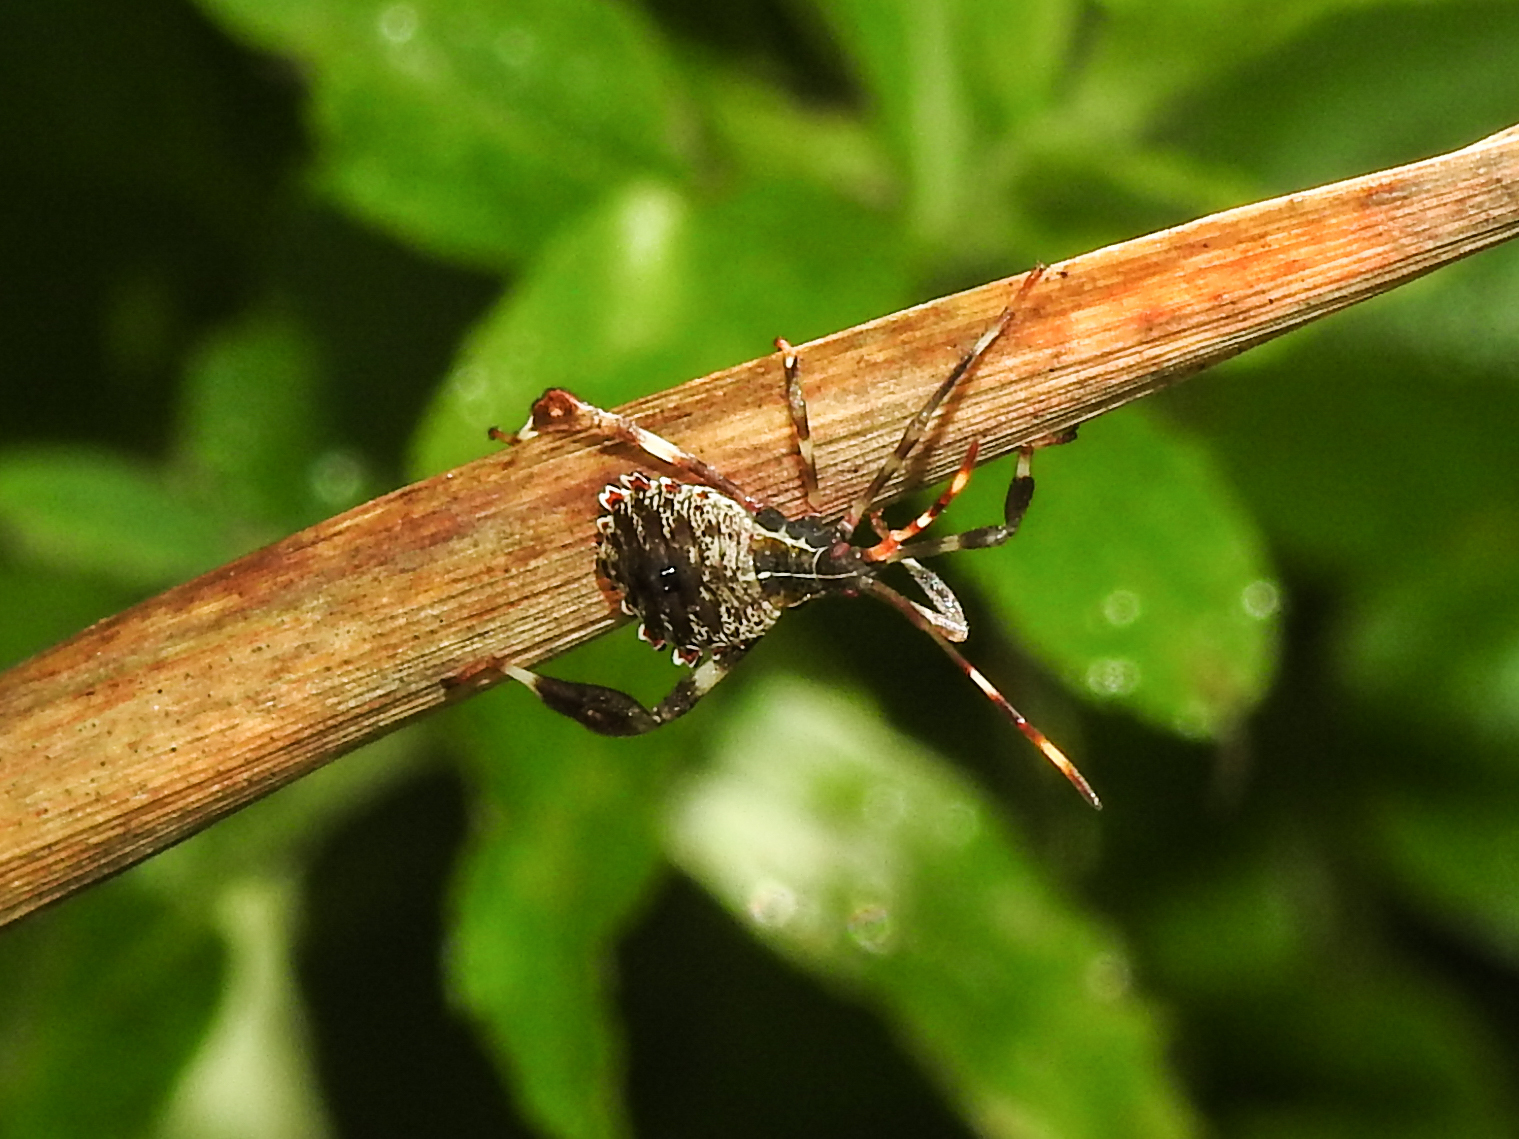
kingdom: Animalia
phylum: Arthropoda
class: Insecta
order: Hemiptera
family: Coreidae
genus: Acanthocephala
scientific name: Acanthocephala terminalis
